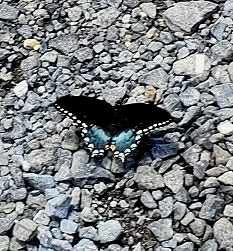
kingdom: Animalia
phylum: Arthropoda
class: Insecta
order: Lepidoptera
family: Papilionidae
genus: Papilio
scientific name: Papilio troilus
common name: Spicebush swallowtail
